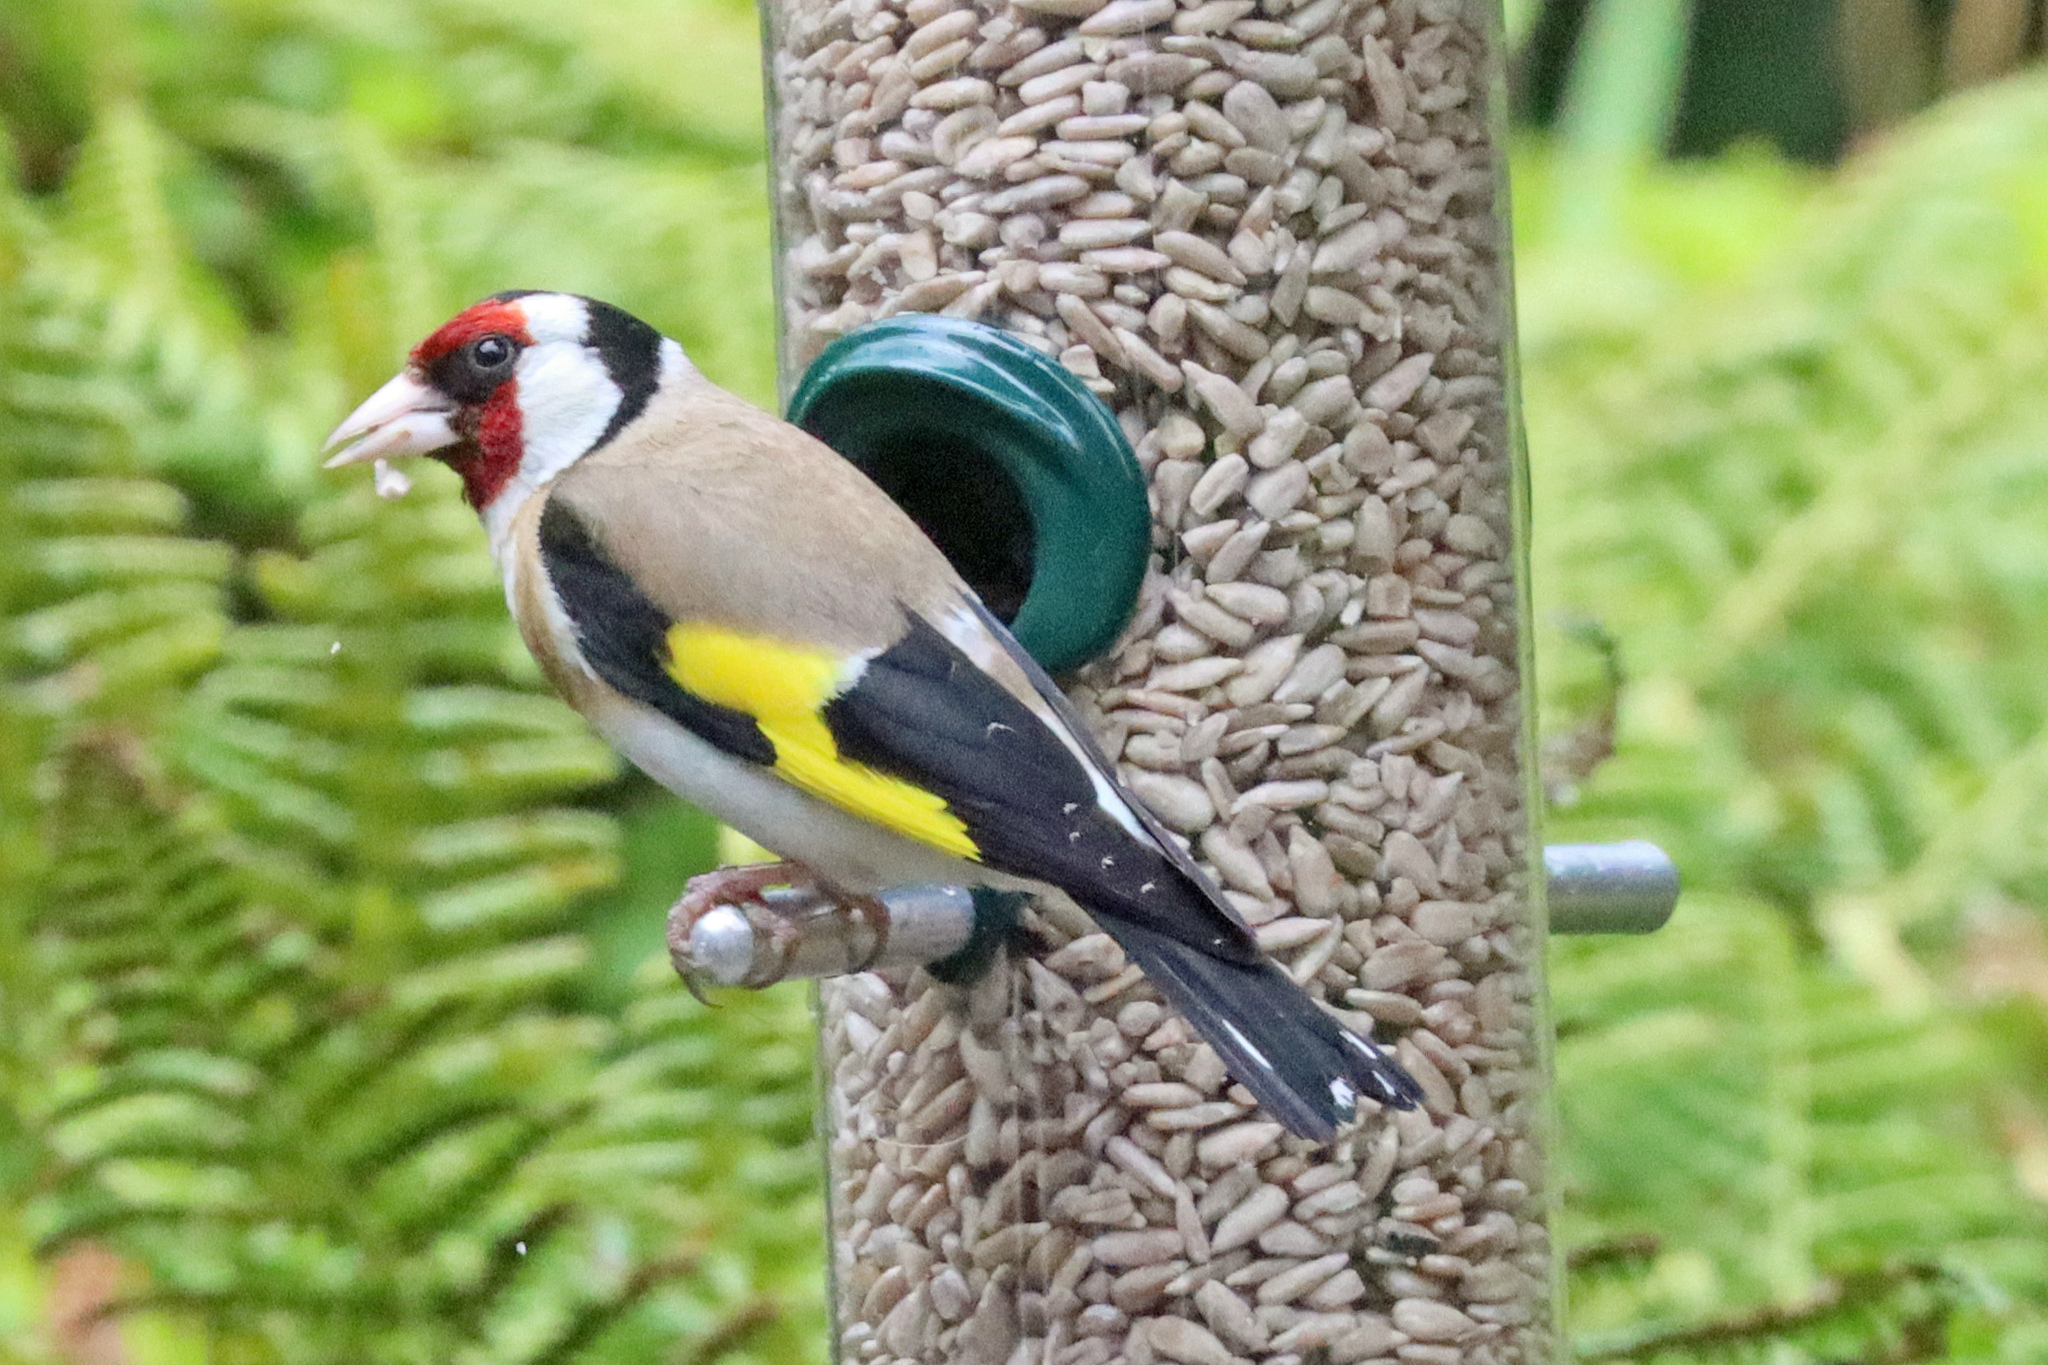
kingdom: Animalia
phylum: Chordata
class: Aves
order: Passeriformes
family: Fringillidae
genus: Carduelis
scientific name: Carduelis carduelis
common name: European goldfinch
